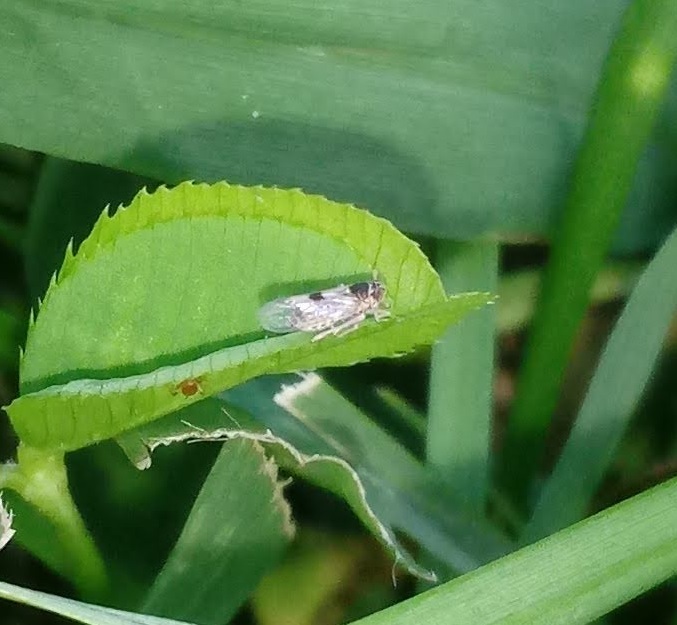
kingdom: Animalia
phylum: Arthropoda
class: Insecta
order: Hemiptera
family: Delphacidae
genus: Chionomus
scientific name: Chionomus
